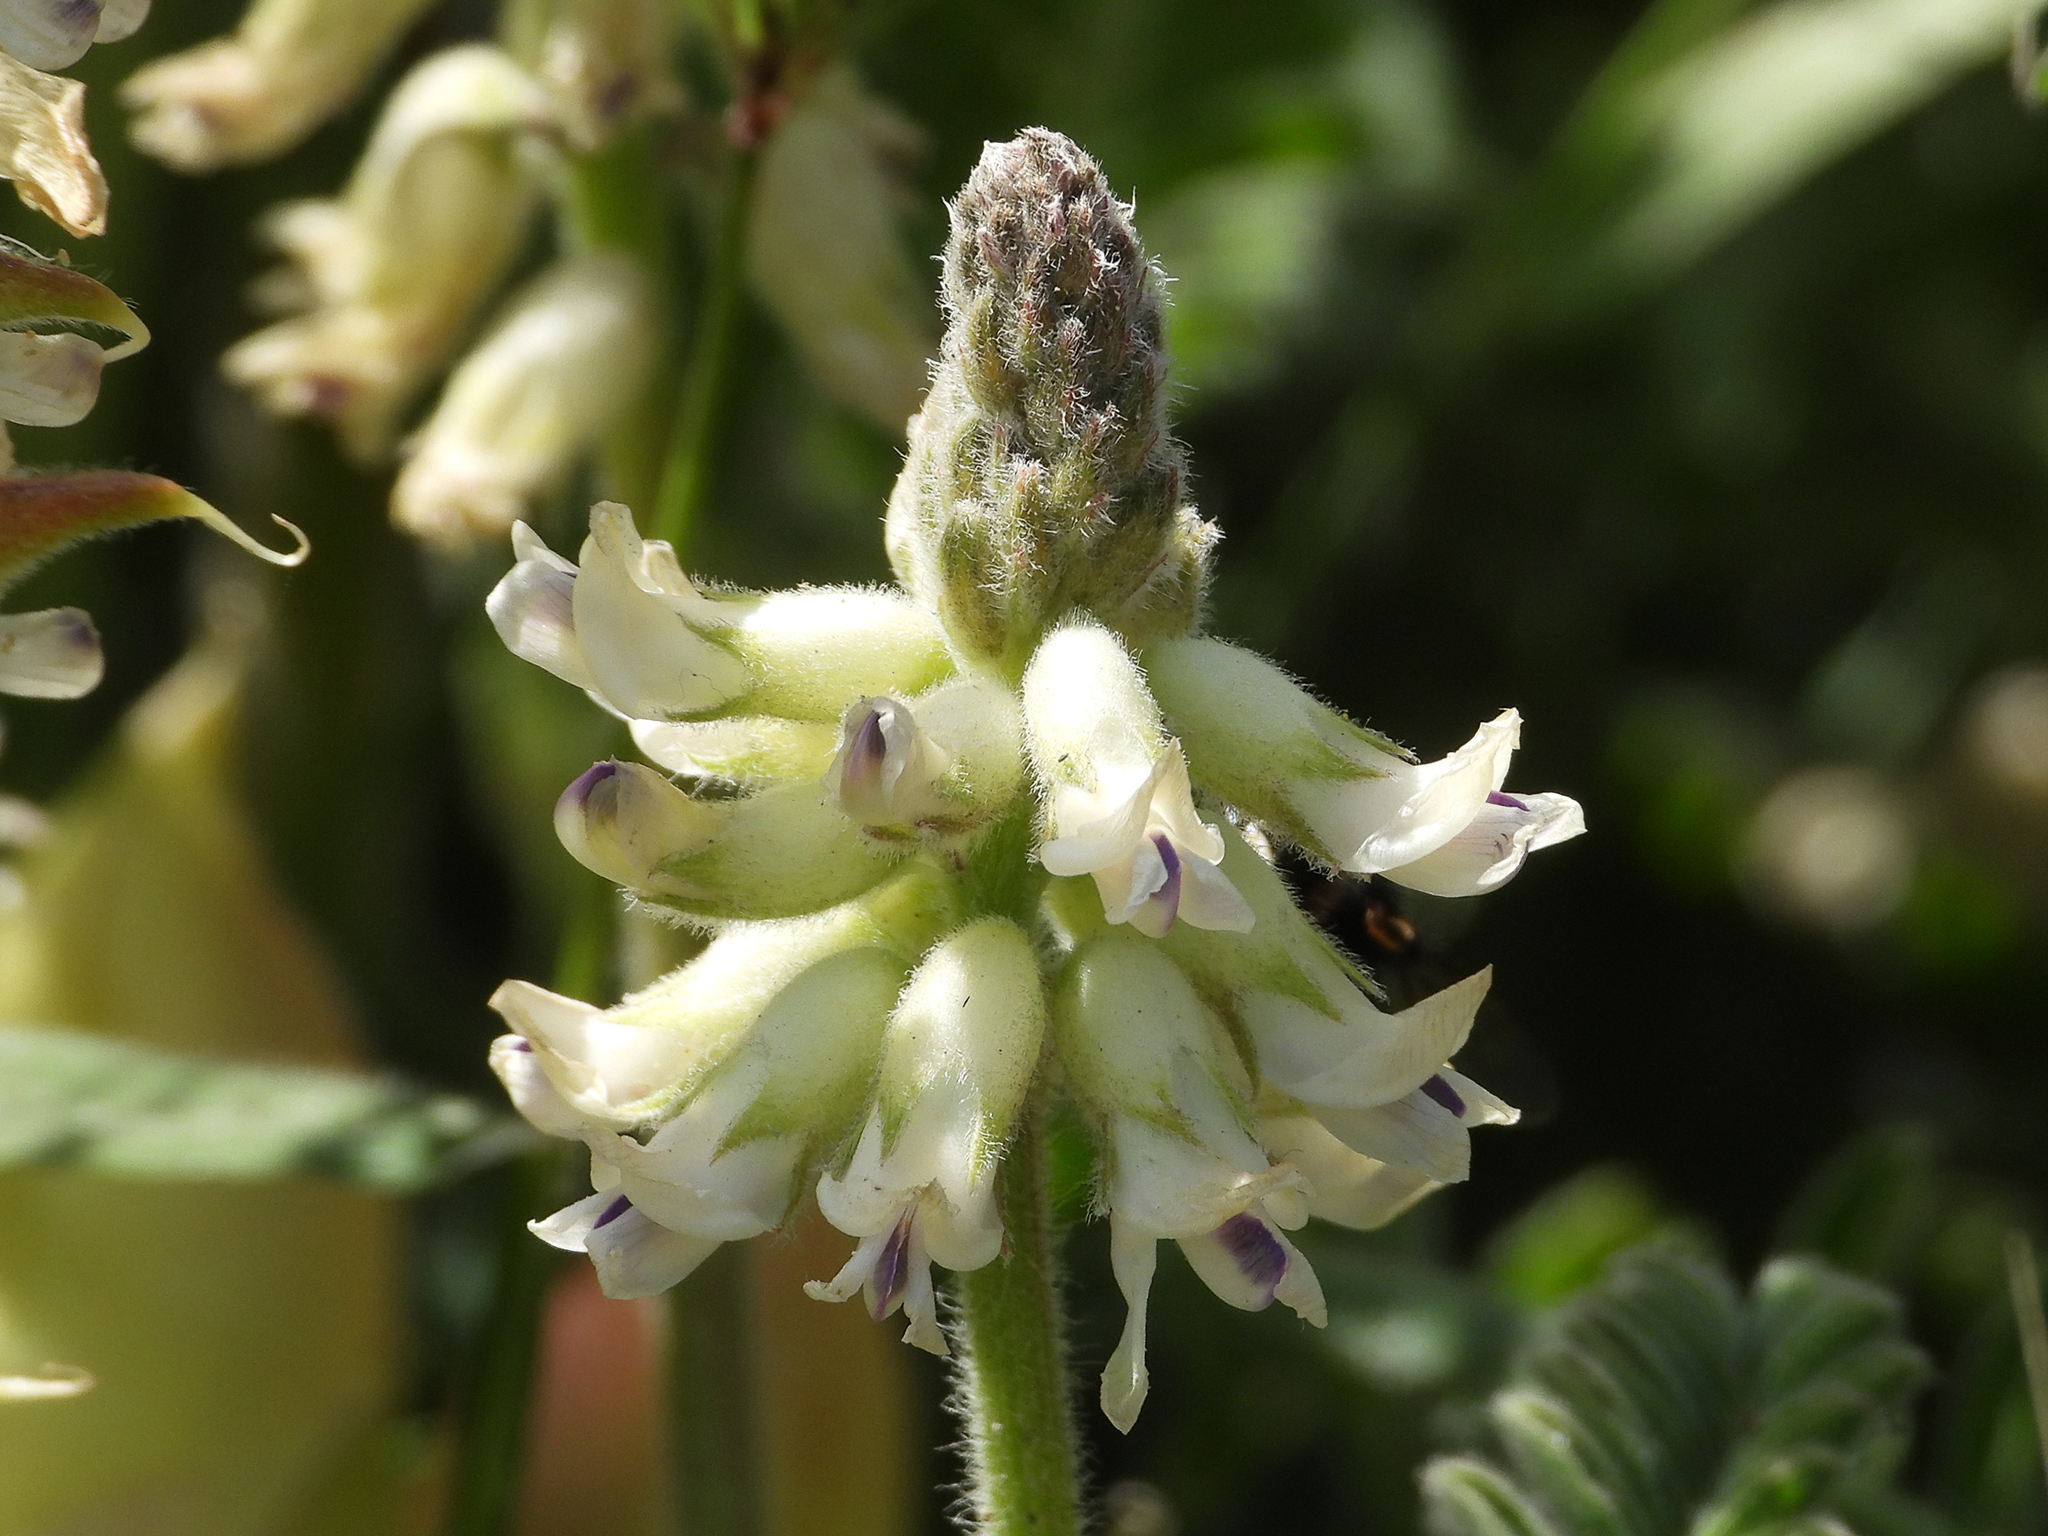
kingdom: Plantae
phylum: Tracheophyta
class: Magnoliopsida
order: Fabales
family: Fabaceae
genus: Astragalus
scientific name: Astragalus nuttallii
